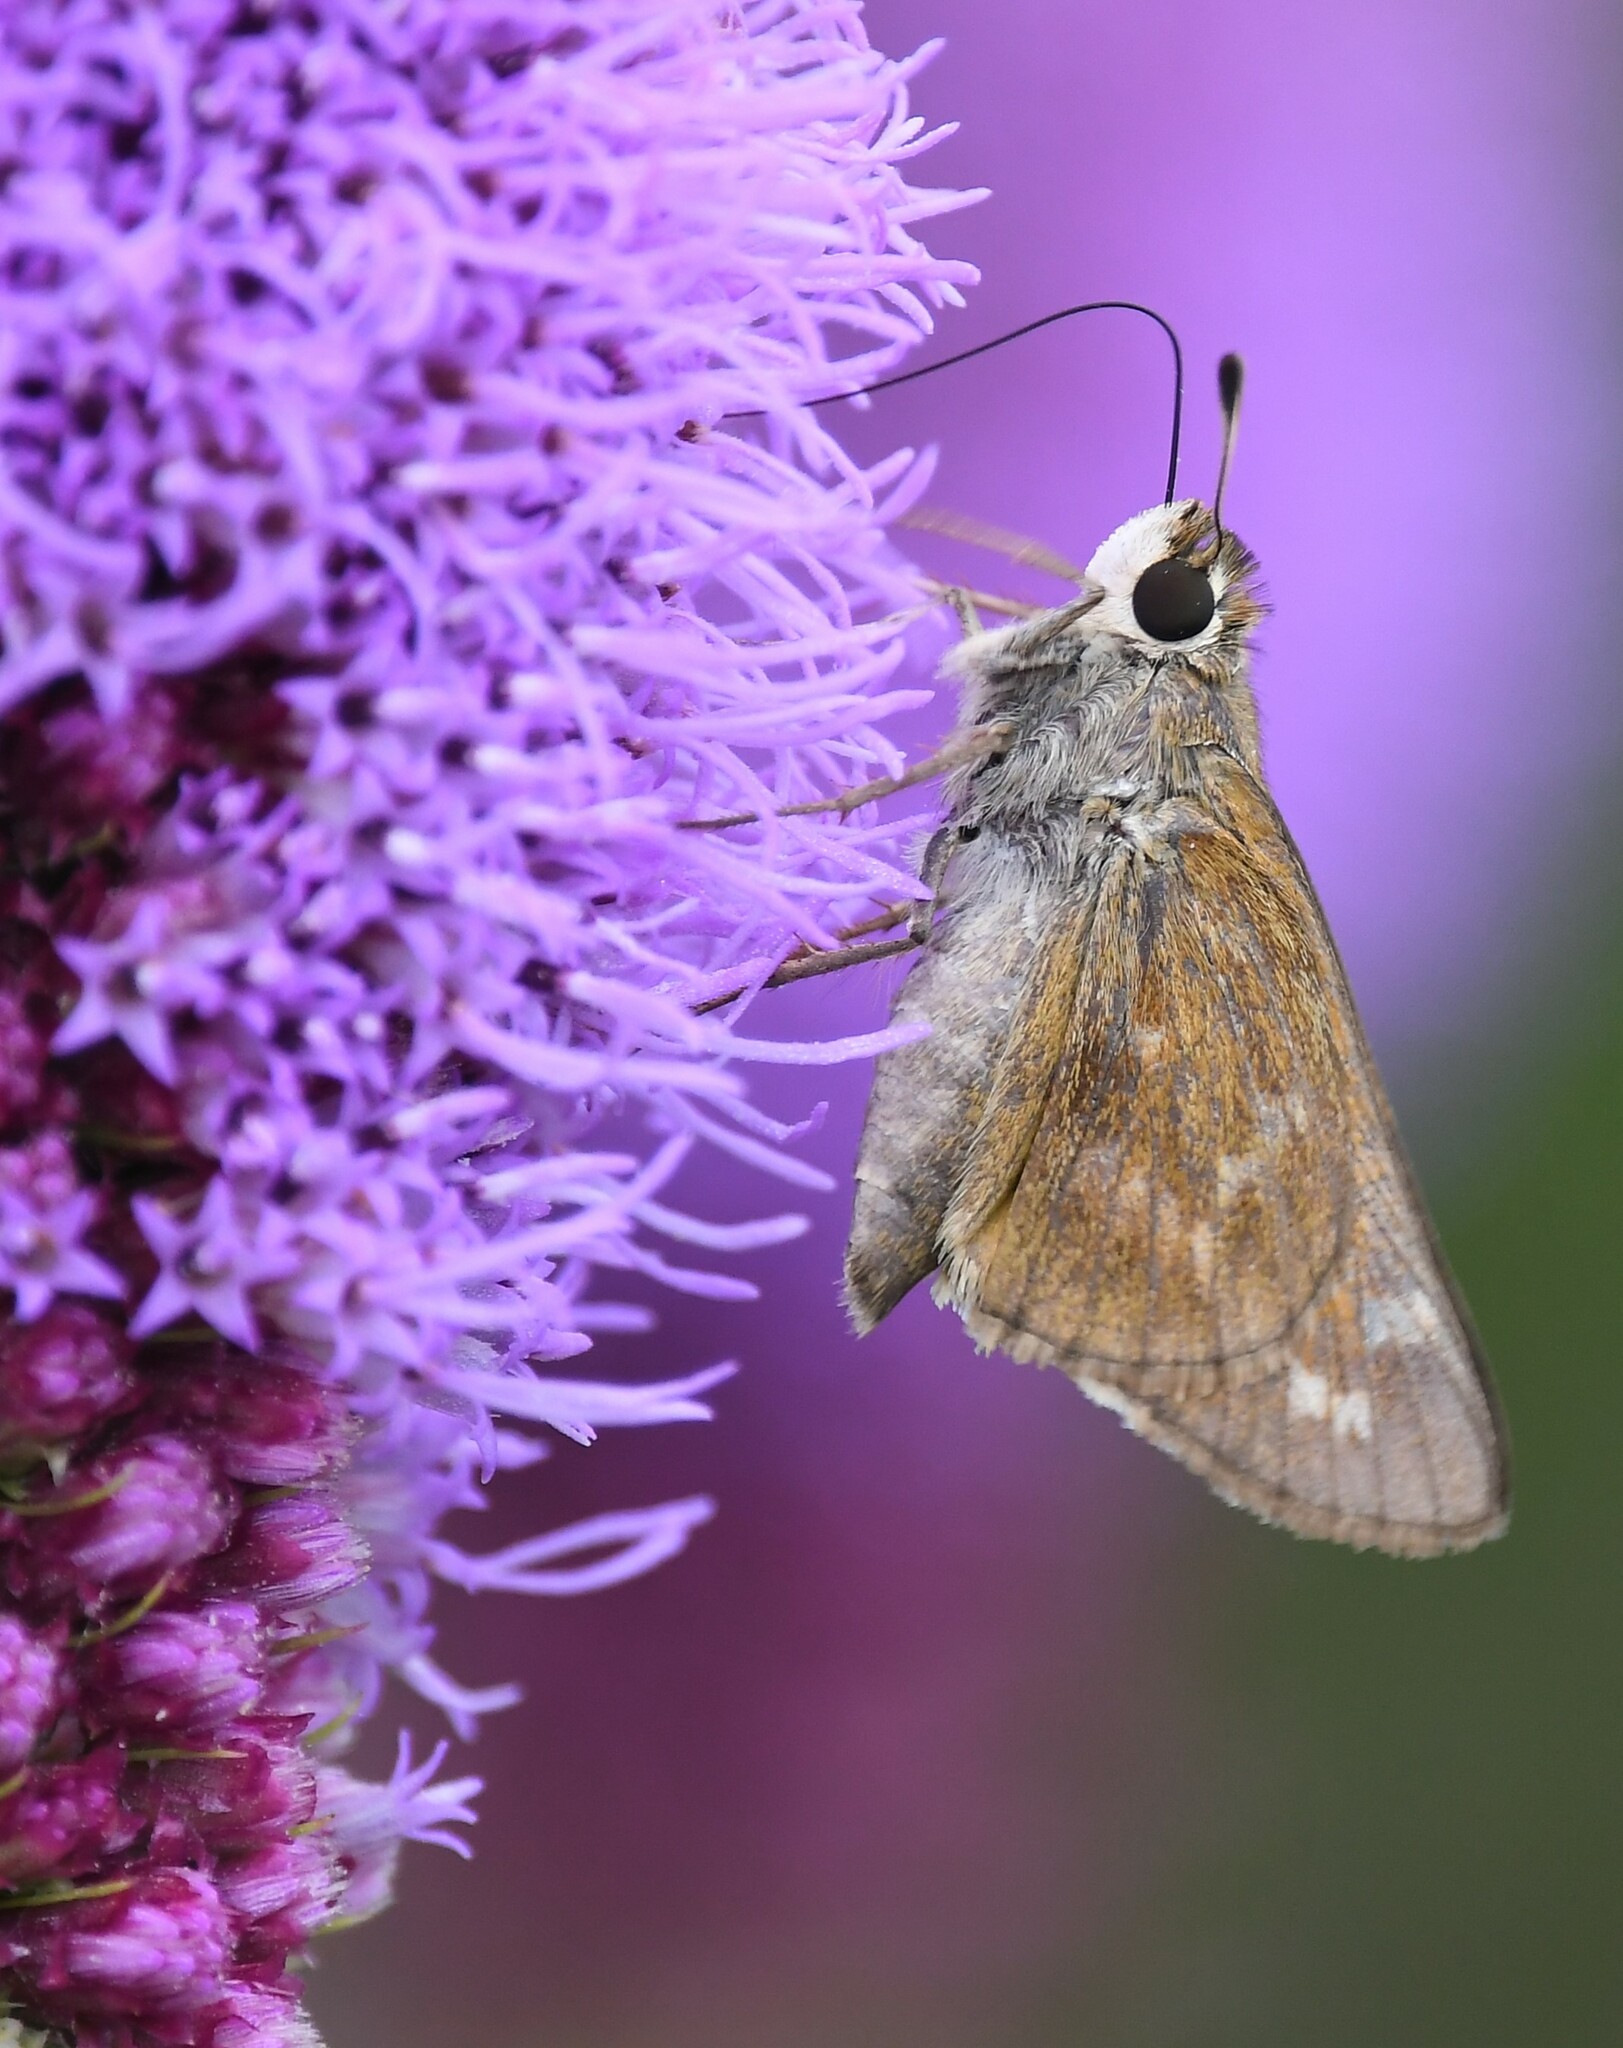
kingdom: Animalia
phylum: Arthropoda
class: Insecta
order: Lepidoptera
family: Hesperiidae
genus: Atalopedes
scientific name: Atalopedes
